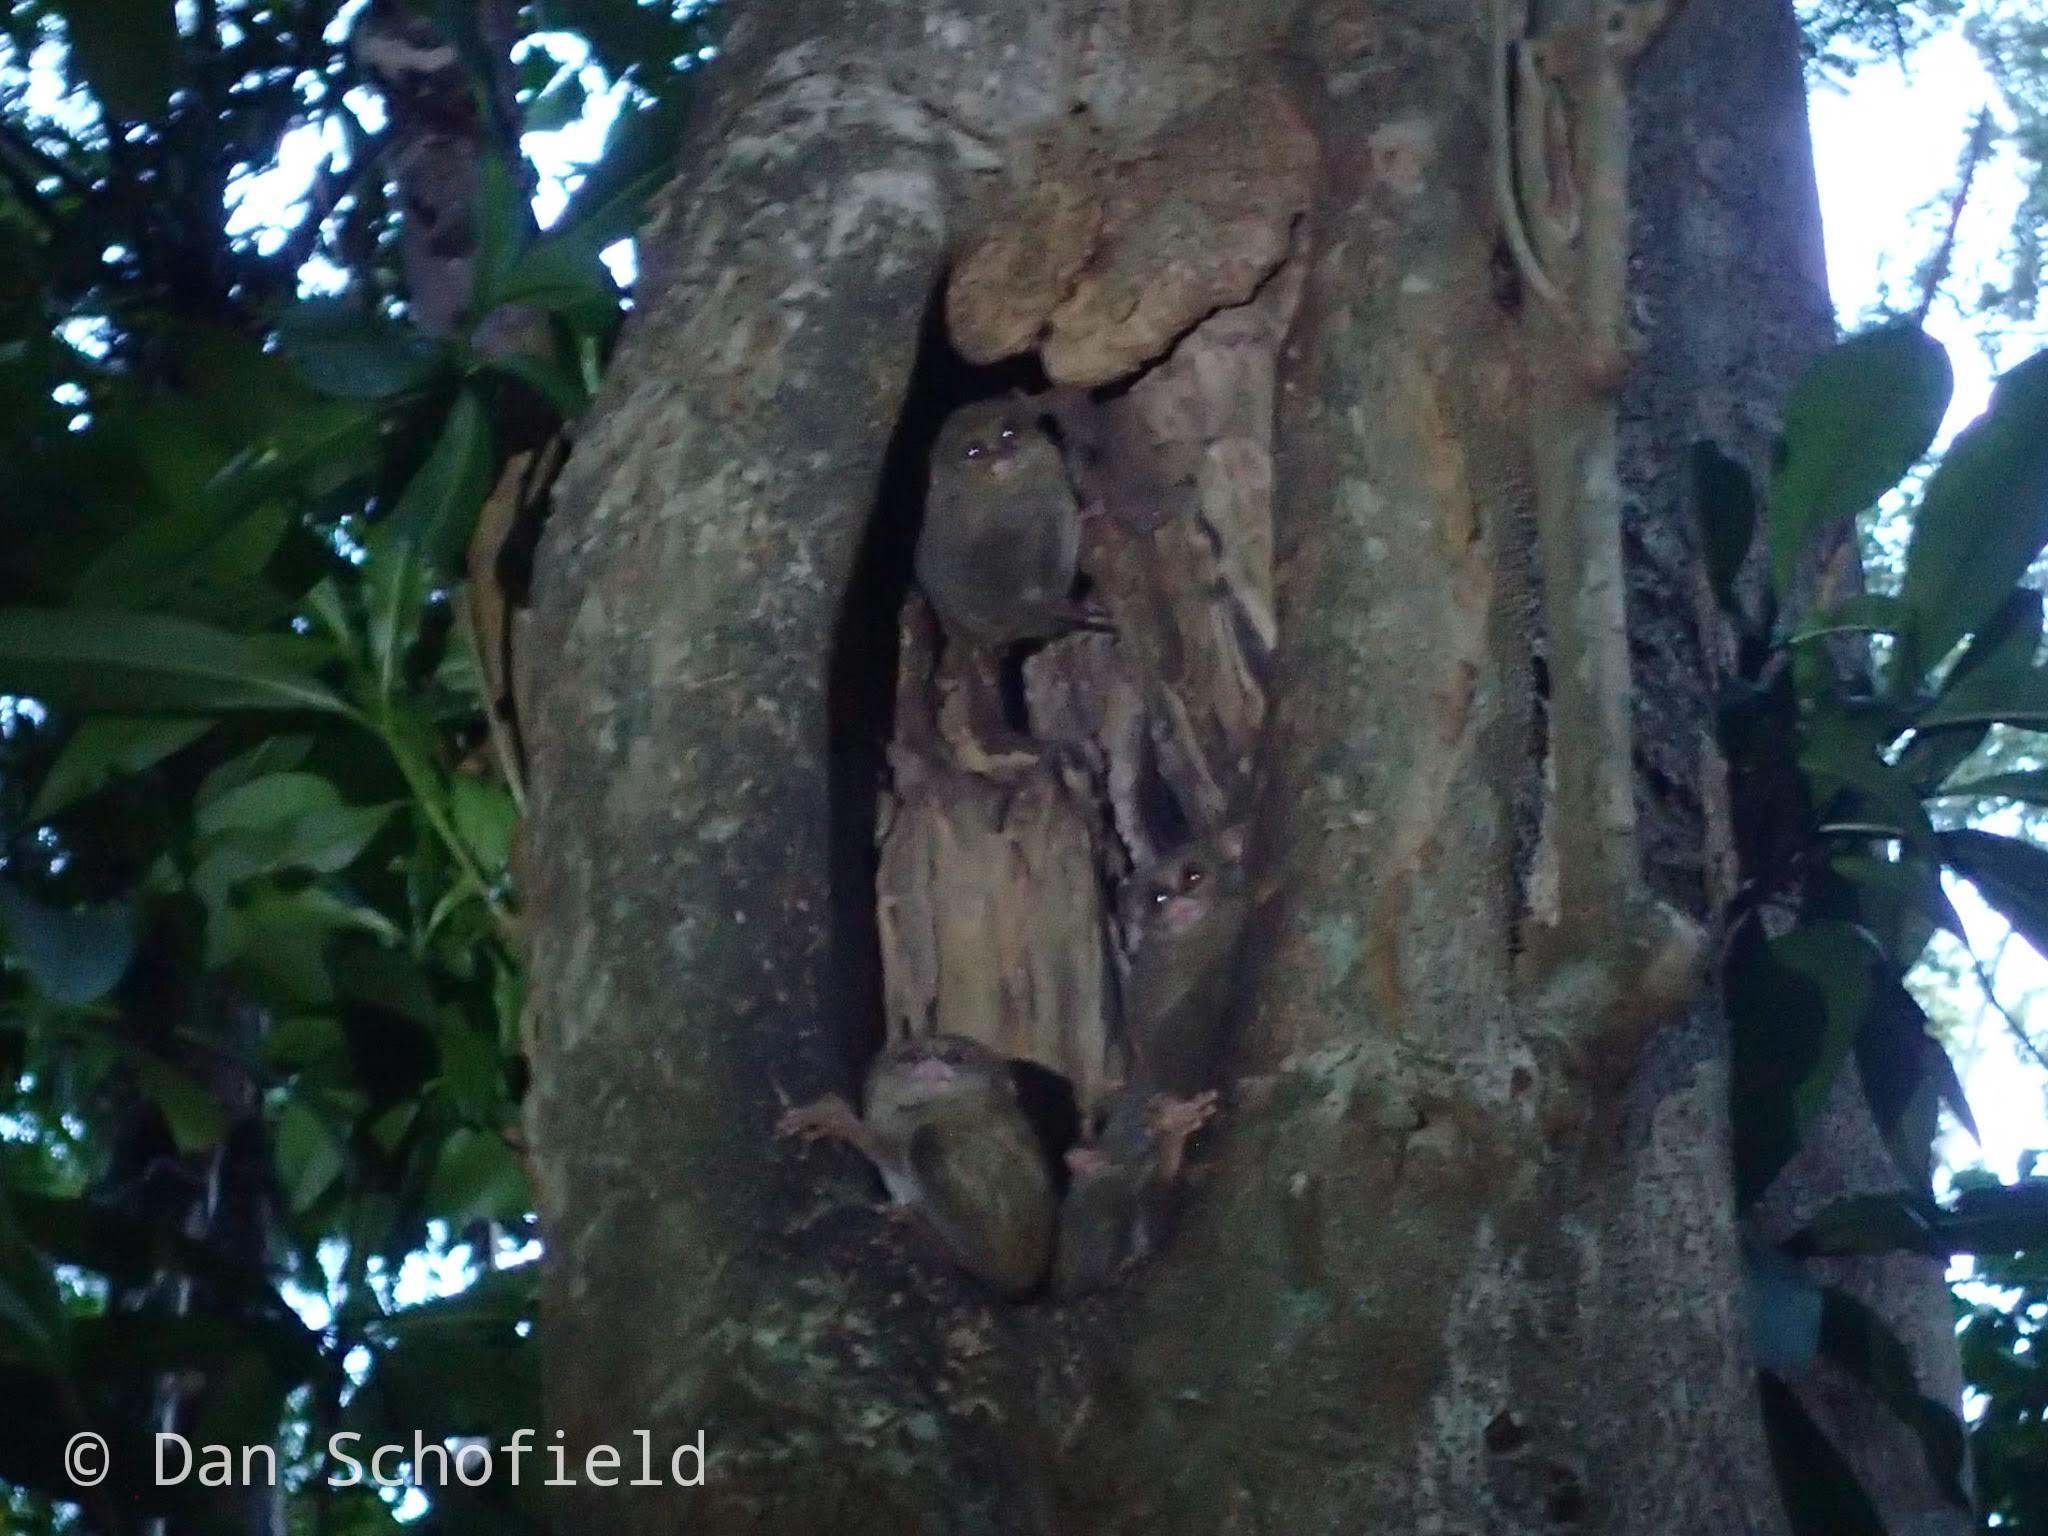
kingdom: Animalia
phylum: Chordata
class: Mammalia
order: Primates
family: Tarsiidae
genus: Tarsius
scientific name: Tarsius spectrumgurskyae
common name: Gursky's spectral tarsier
